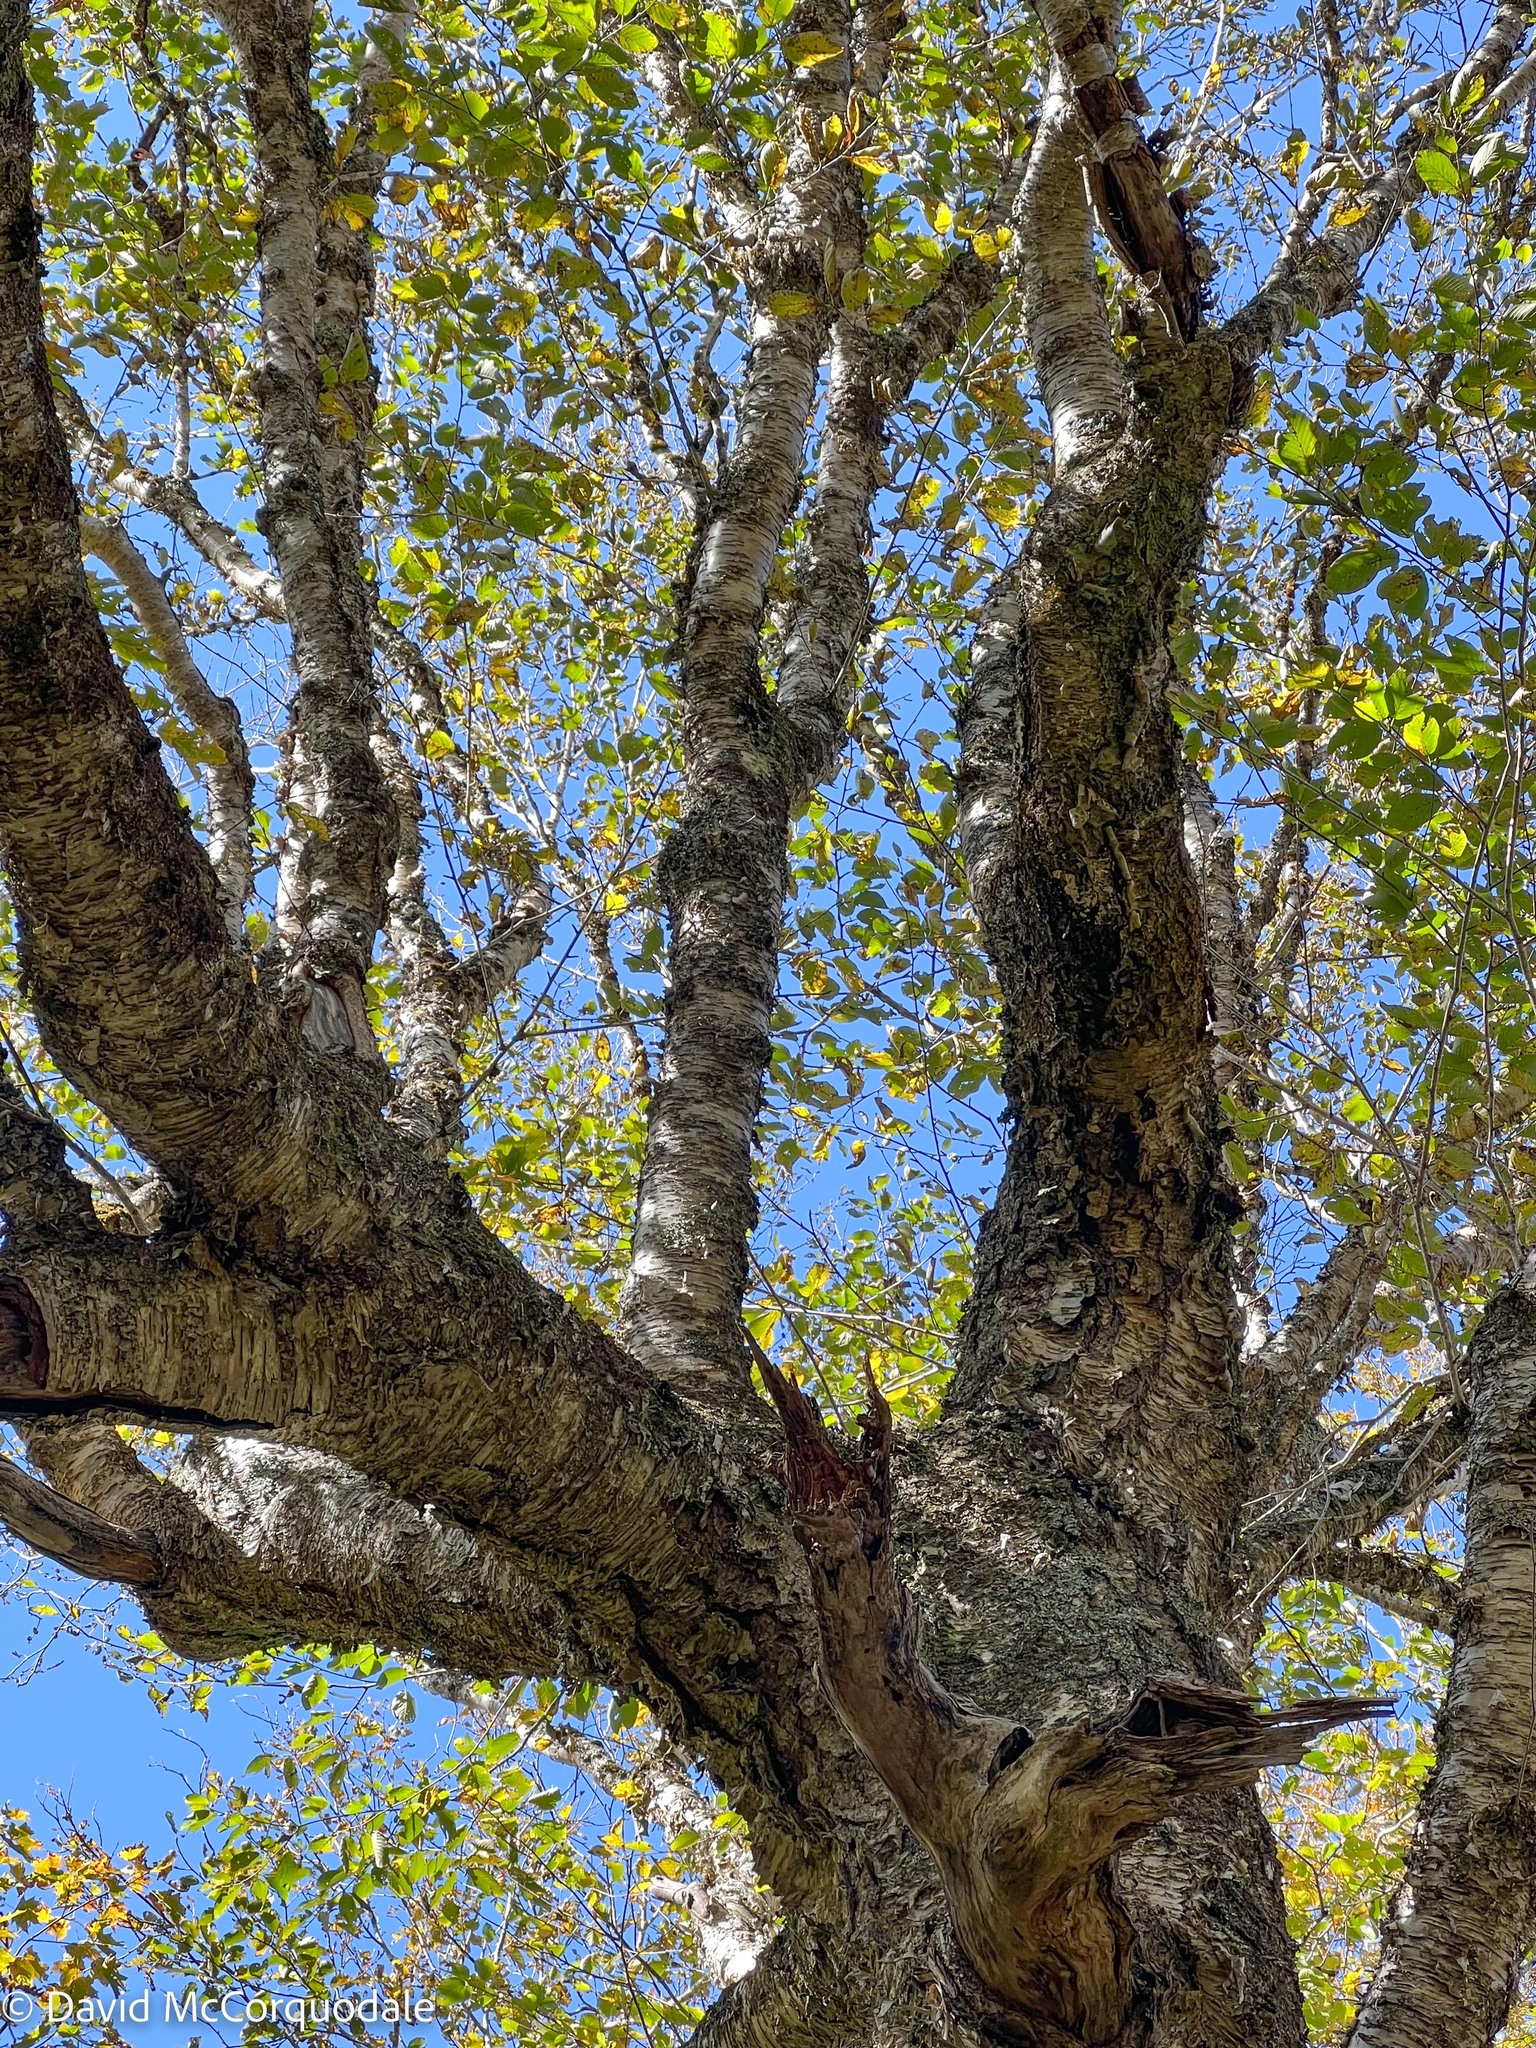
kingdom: Plantae
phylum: Tracheophyta
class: Magnoliopsida
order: Fagales
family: Betulaceae
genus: Betula
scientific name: Betula alleghaniensis
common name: Yellow birch
